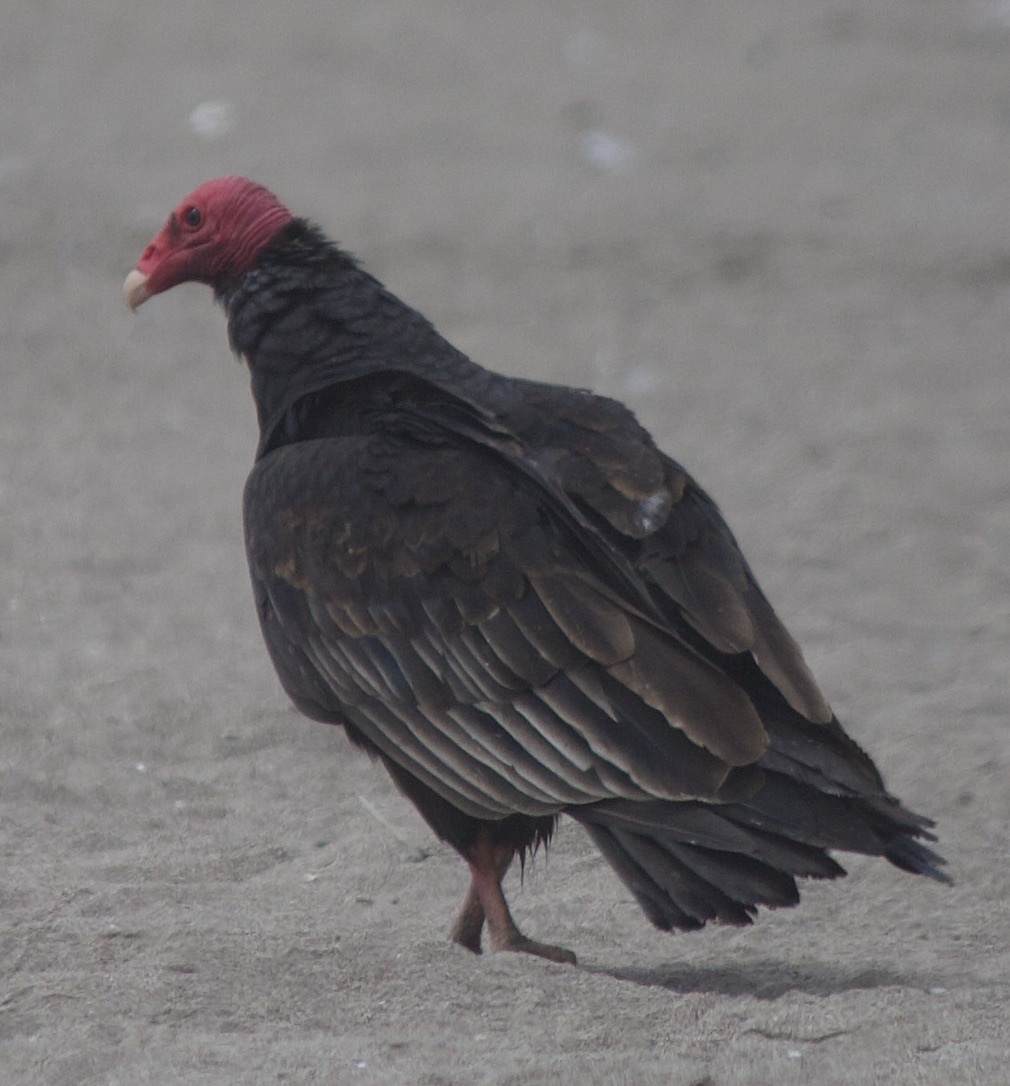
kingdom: Animalia
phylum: Chordata
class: Aves
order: Accipitriformes
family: Cathartidae
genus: Cathartes
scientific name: Cathartes aura
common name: Turkey vulture
